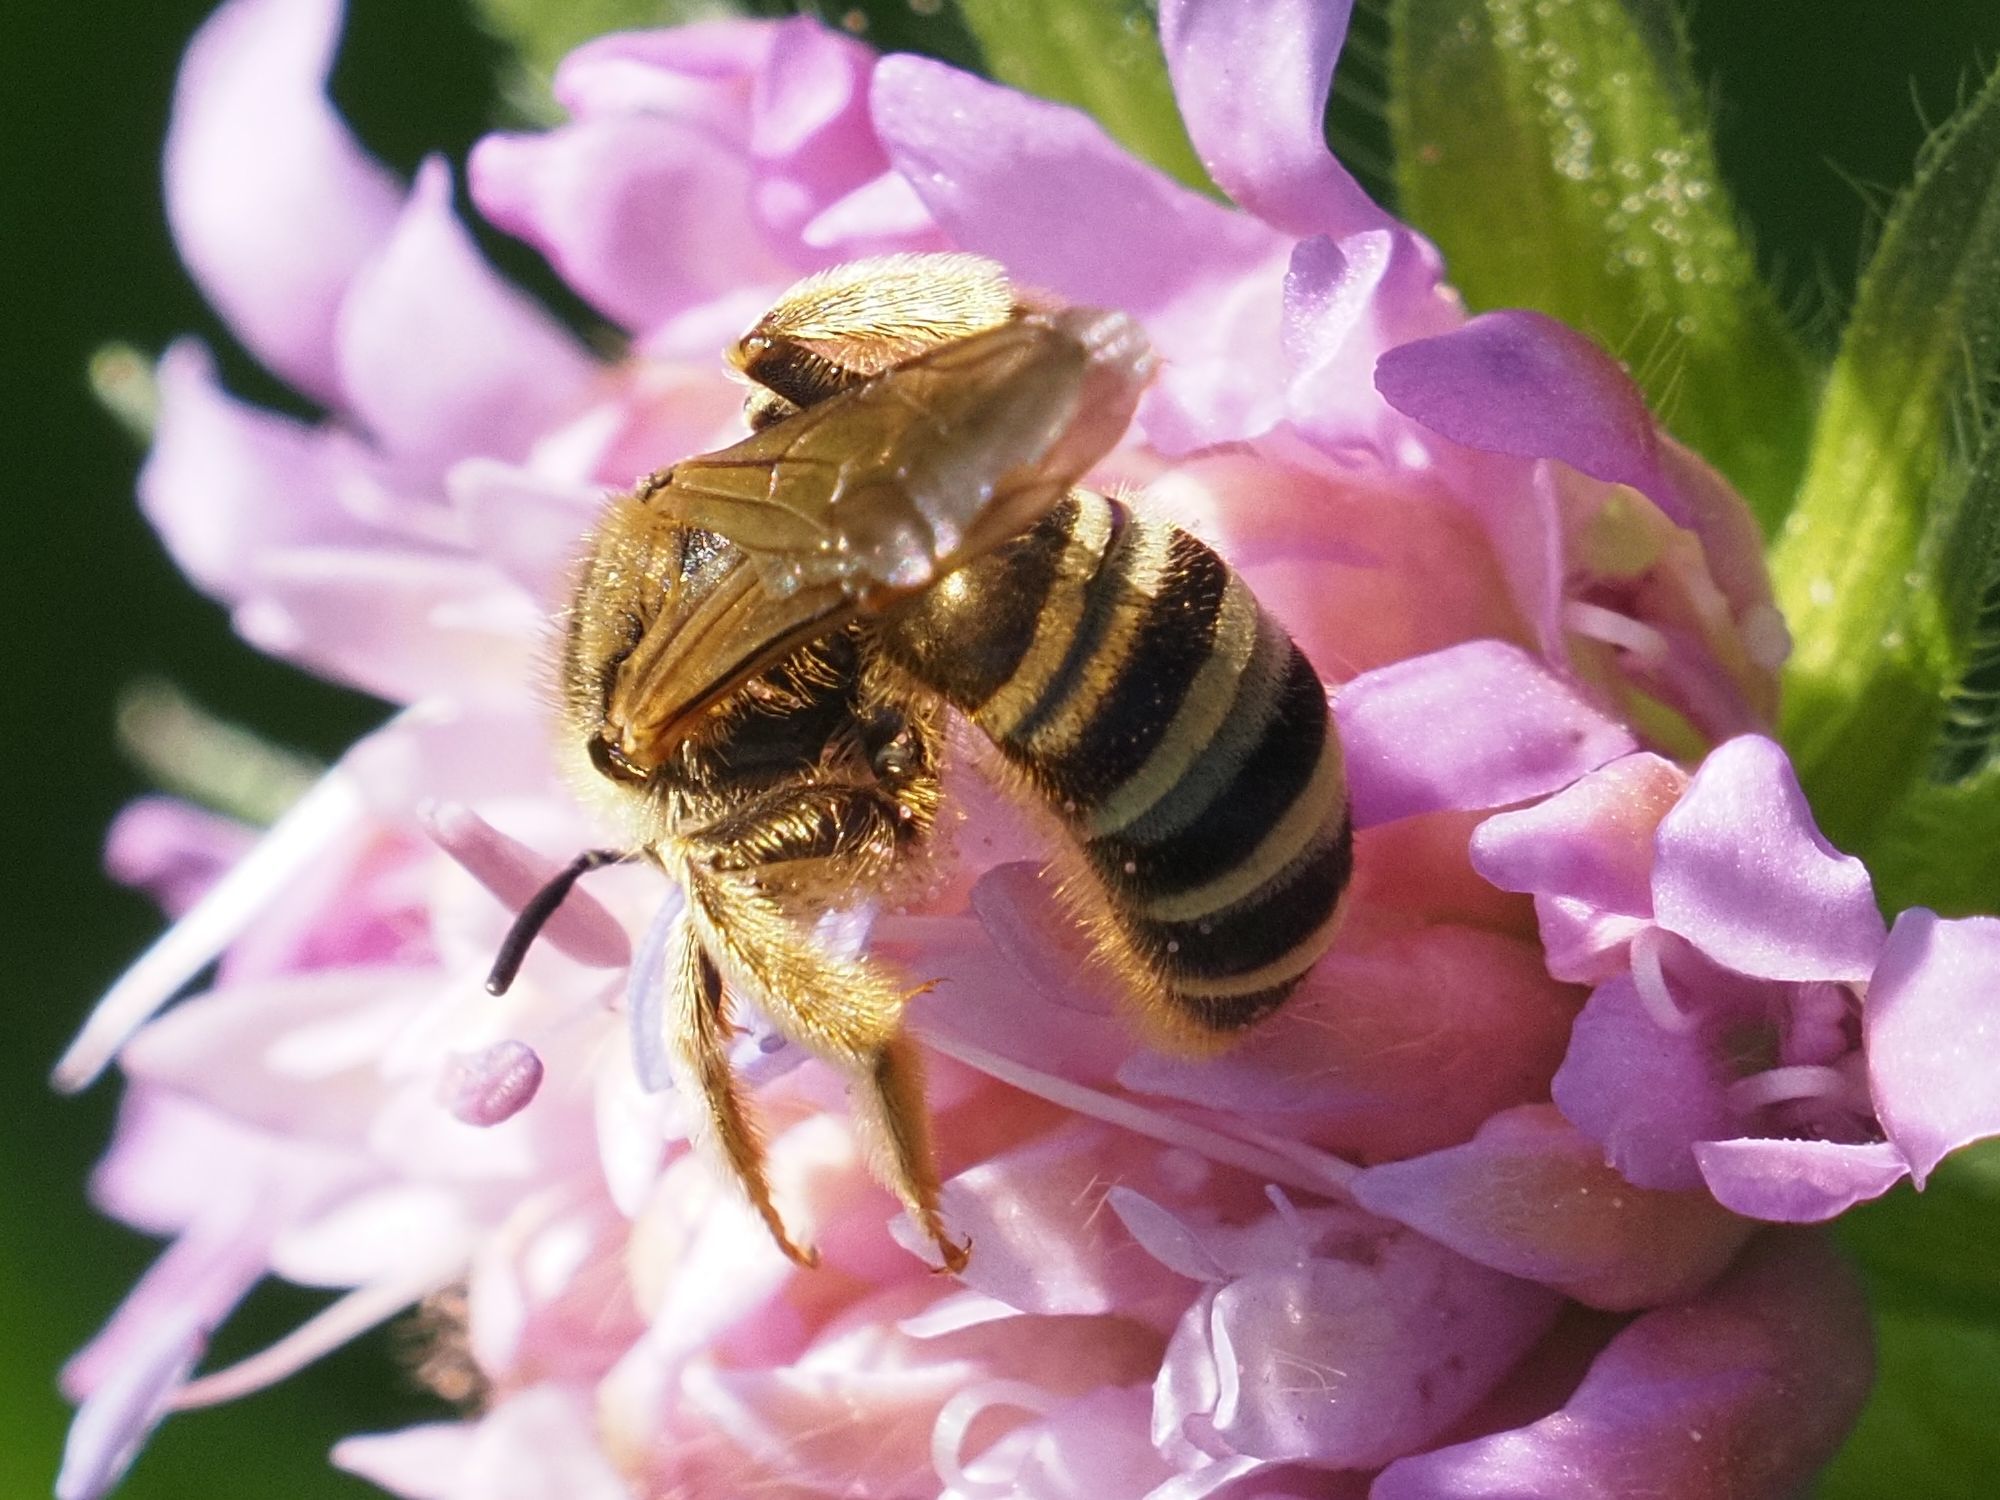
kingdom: Animalia
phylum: Arthropoda
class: Insecta
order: Hymenoptera
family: Halictidae
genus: Halictus
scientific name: Halictus scabiosae
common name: Great banded furrow bee
